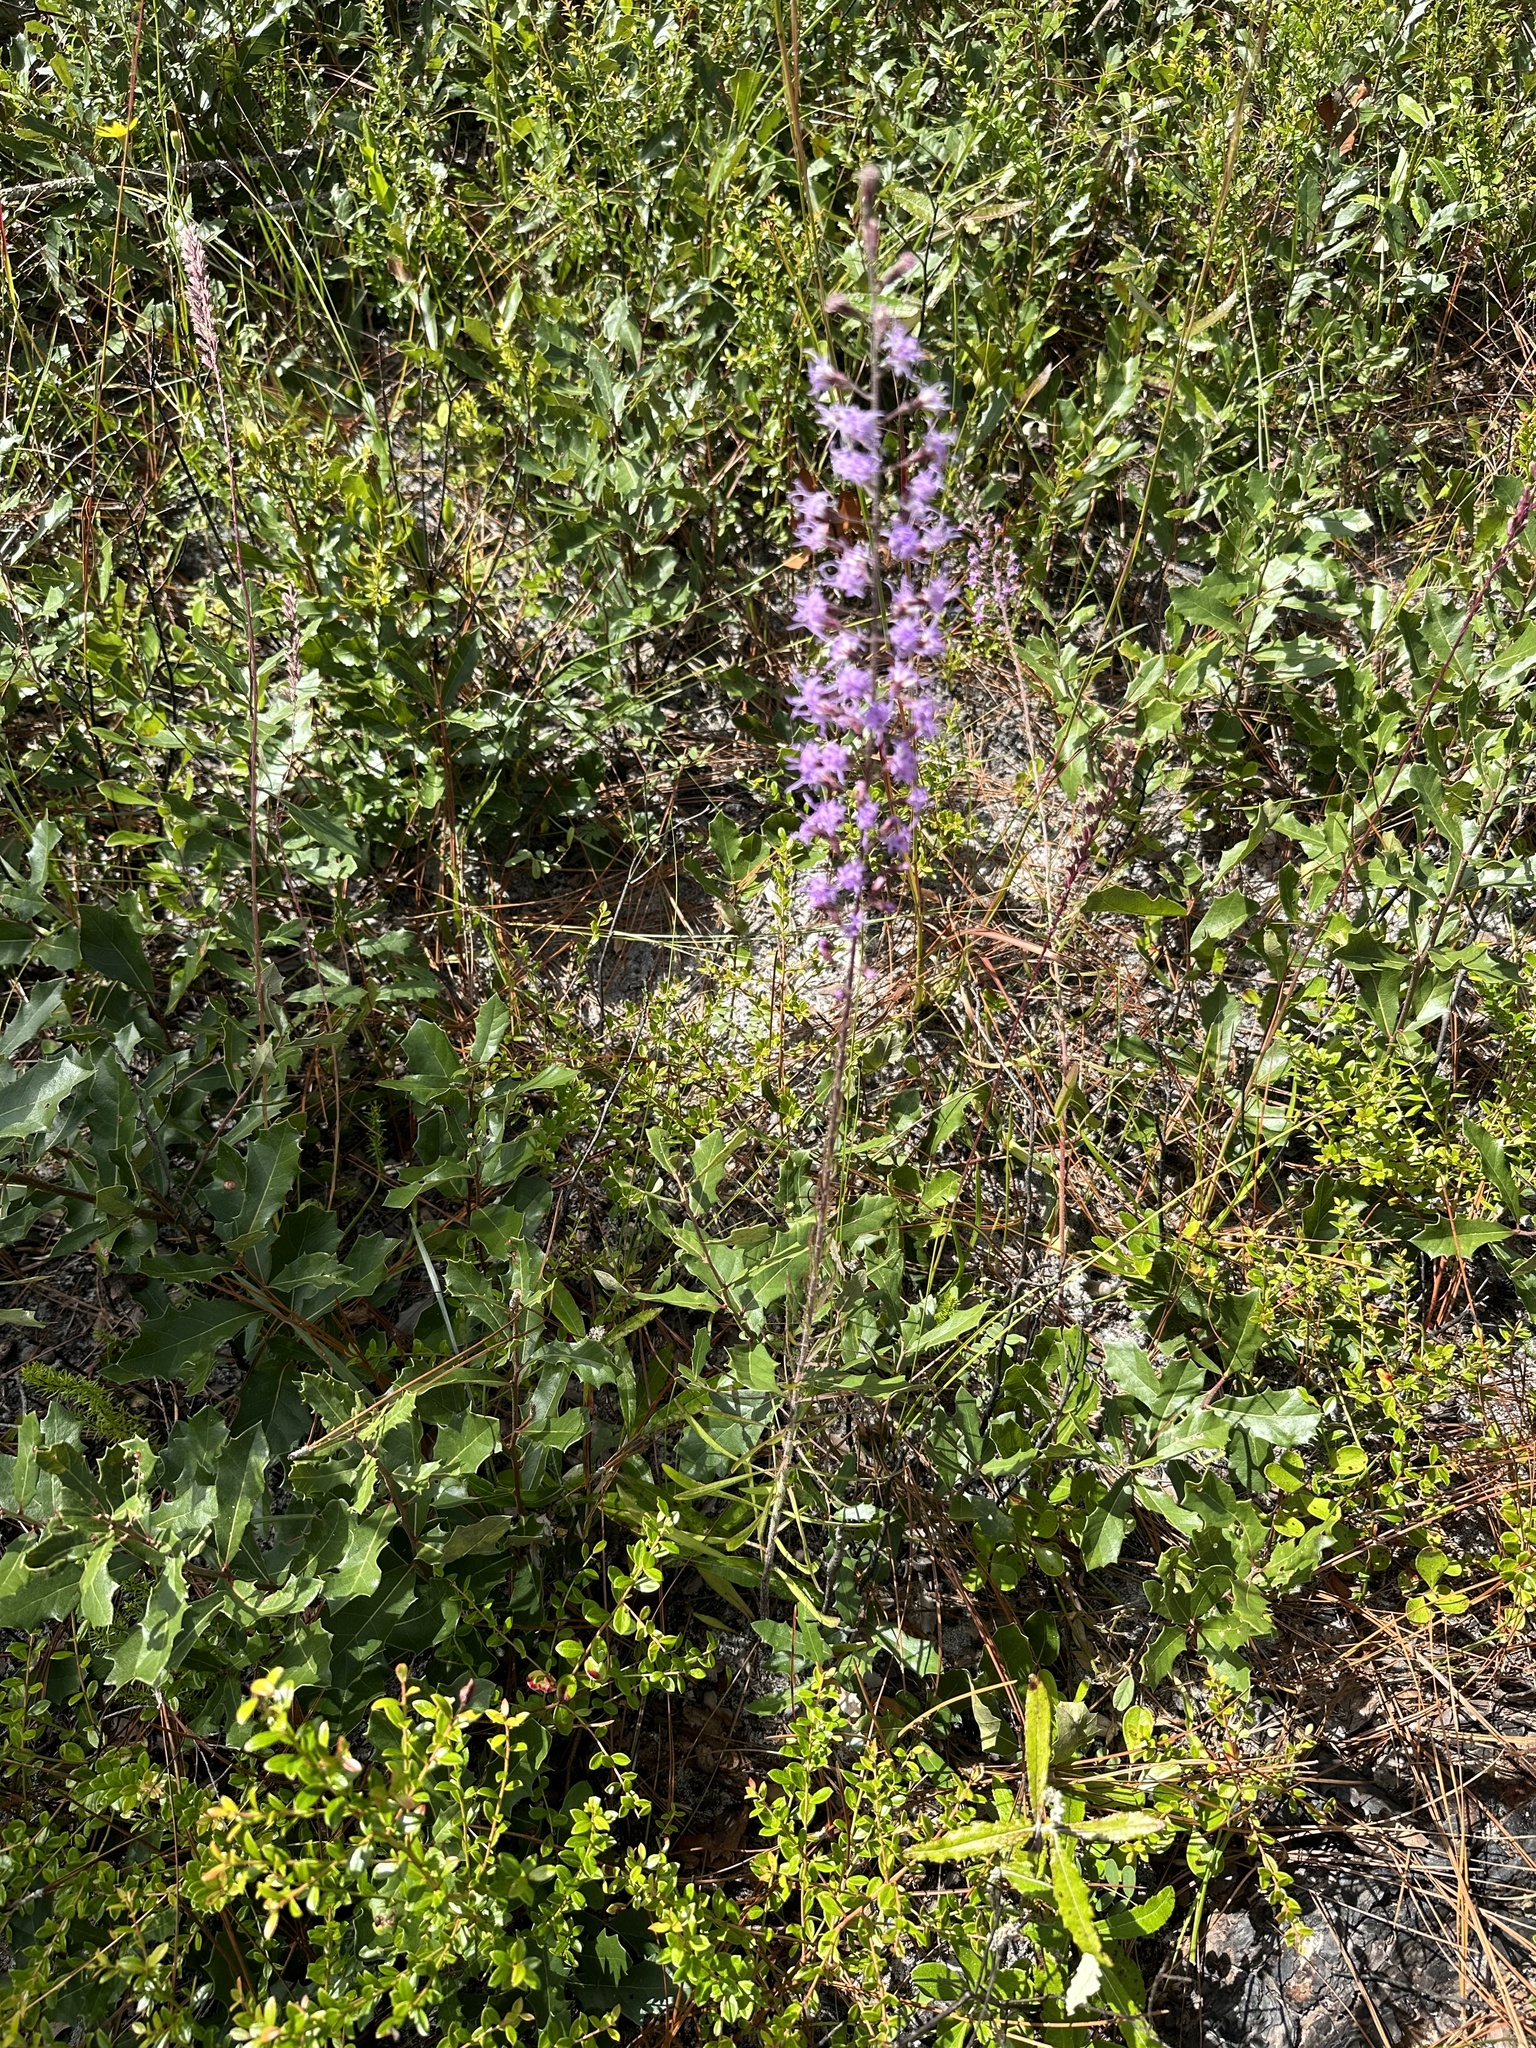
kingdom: Plantae
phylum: Tracheophyta
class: Magnoliopsida
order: Asterales
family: Asteraceae
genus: Liatris
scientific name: Liatris gracilis
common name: Slender gayfeather
